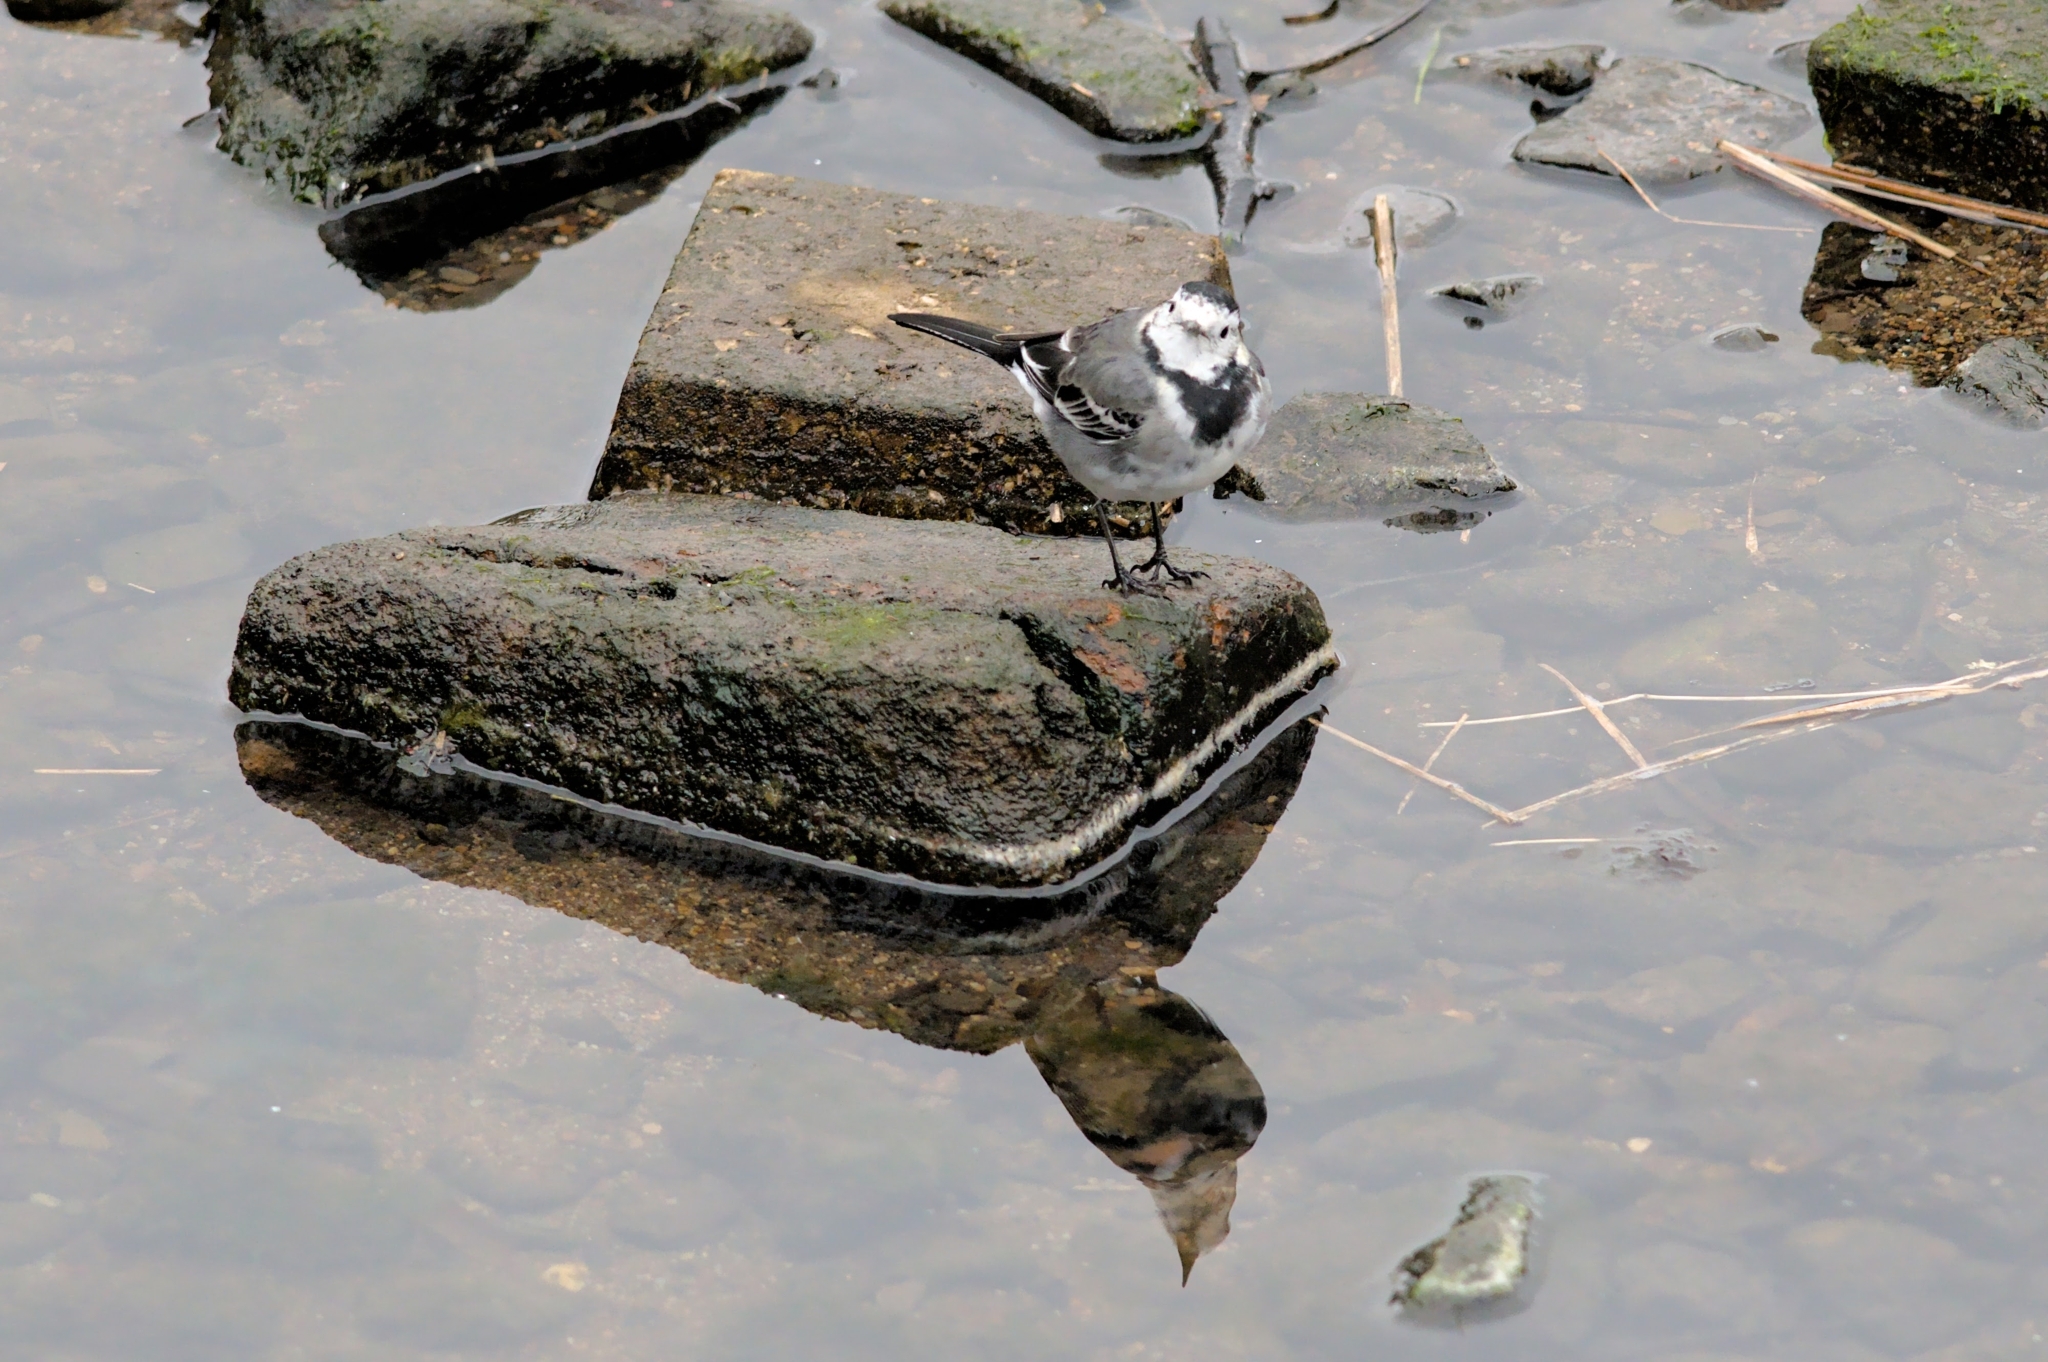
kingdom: Animalia
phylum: Chordata
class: Aves
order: Passeriformes
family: Motacillidae
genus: Motacilla
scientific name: Motacilla alba
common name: White wagtail
